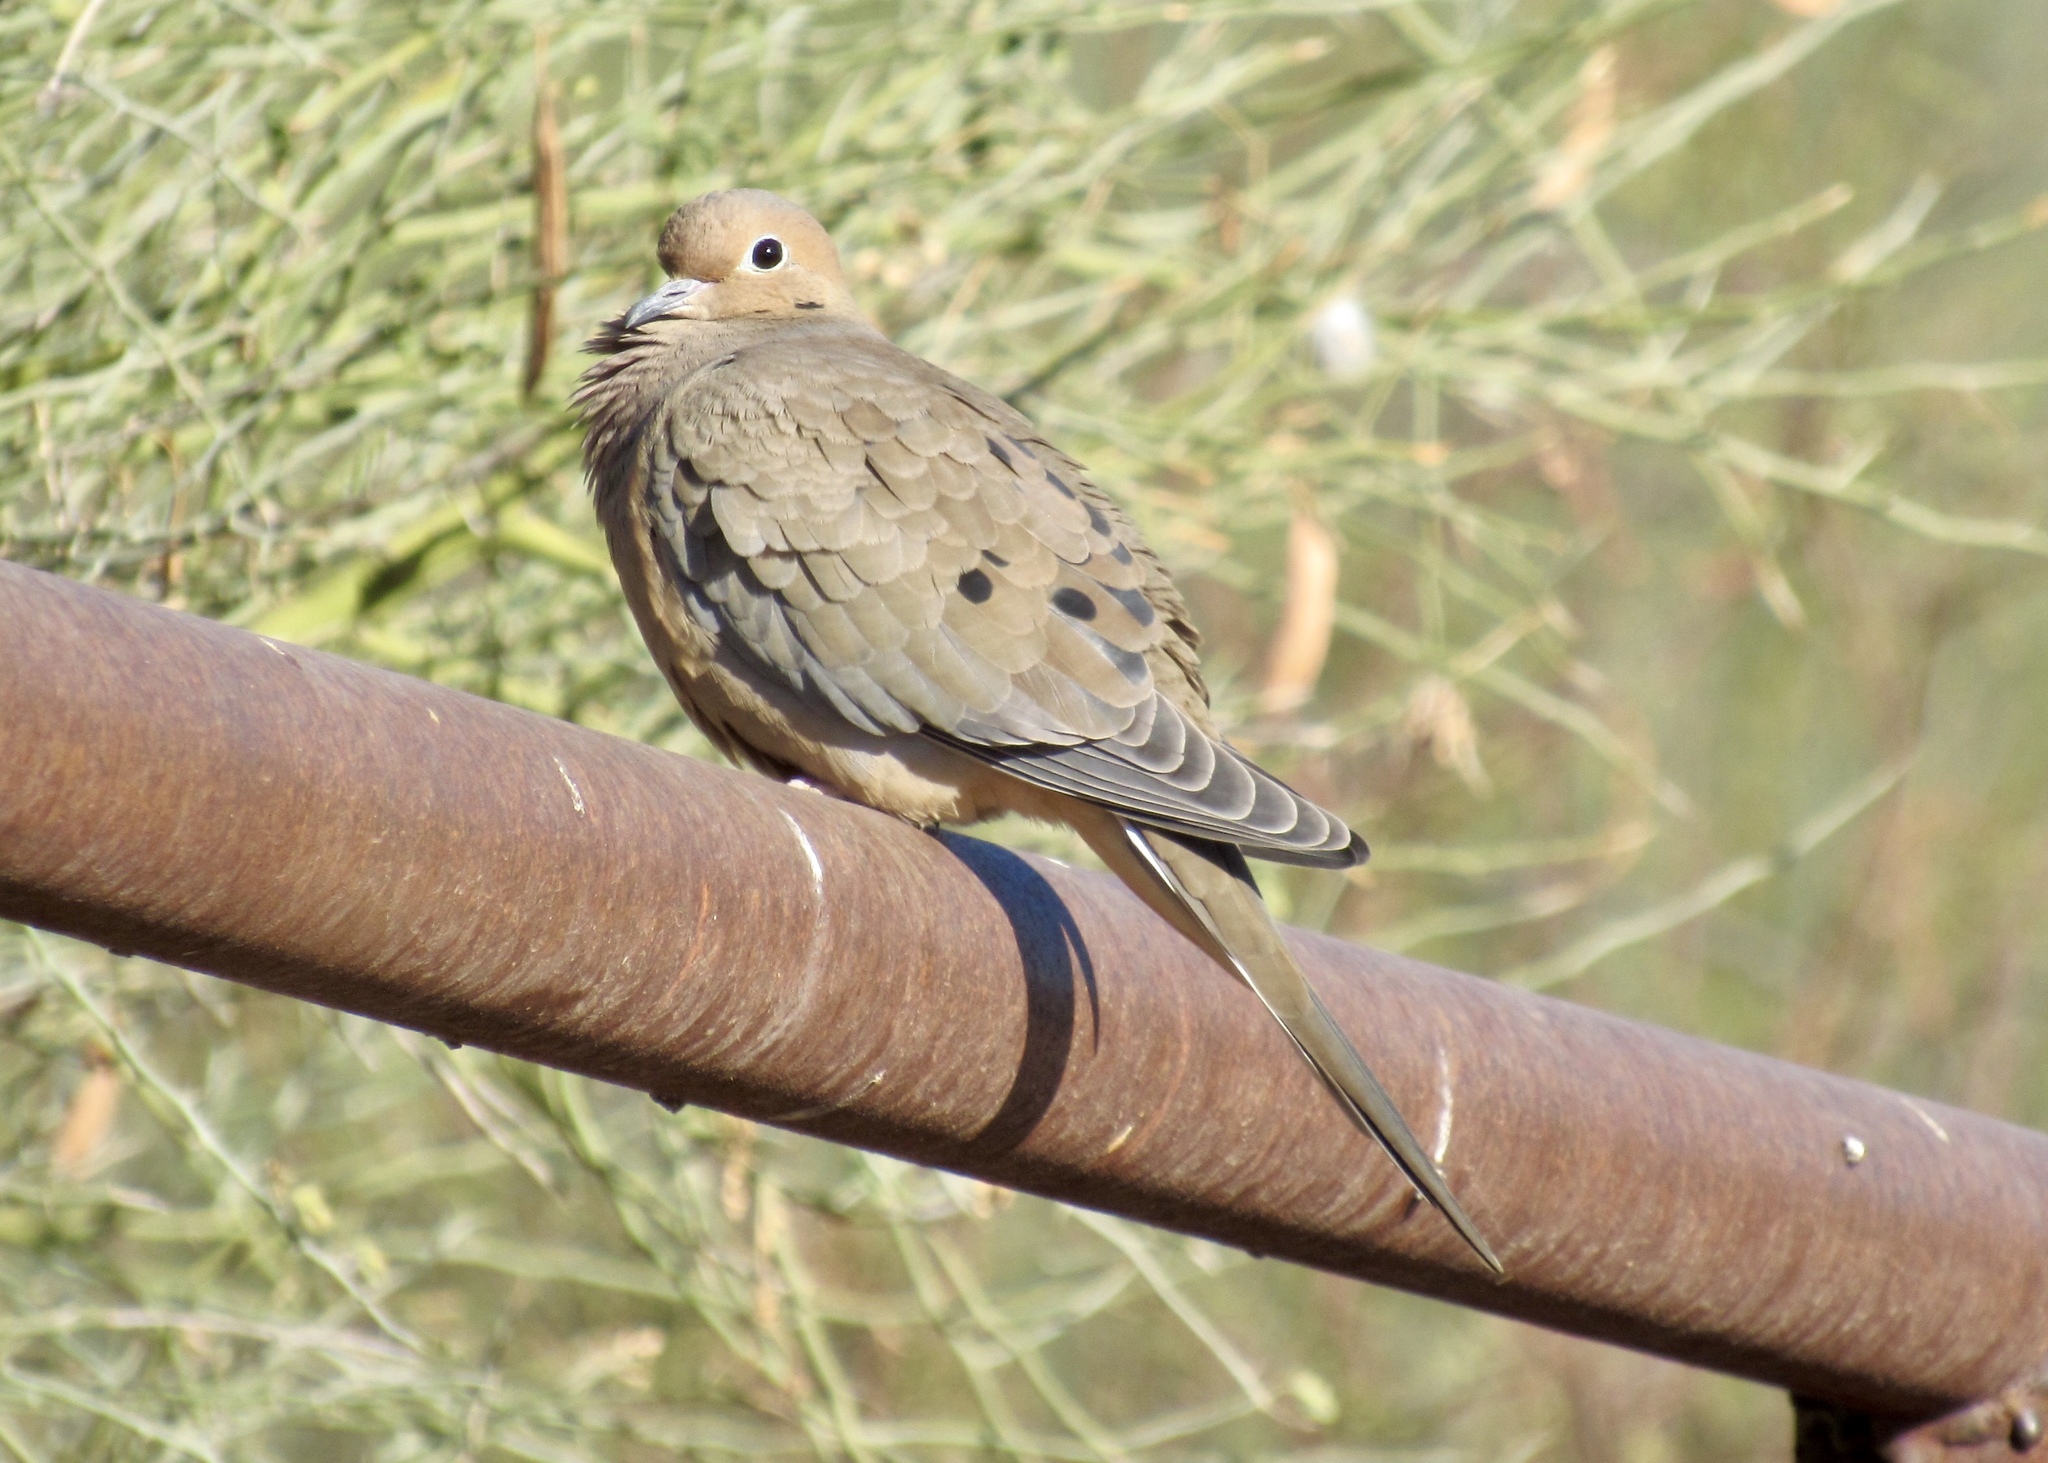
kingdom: Animalia
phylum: Chordata
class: Aves
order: Columbiformes
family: Columbidae
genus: Zenaida
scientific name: Zenaida macroura
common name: Mourning dove
